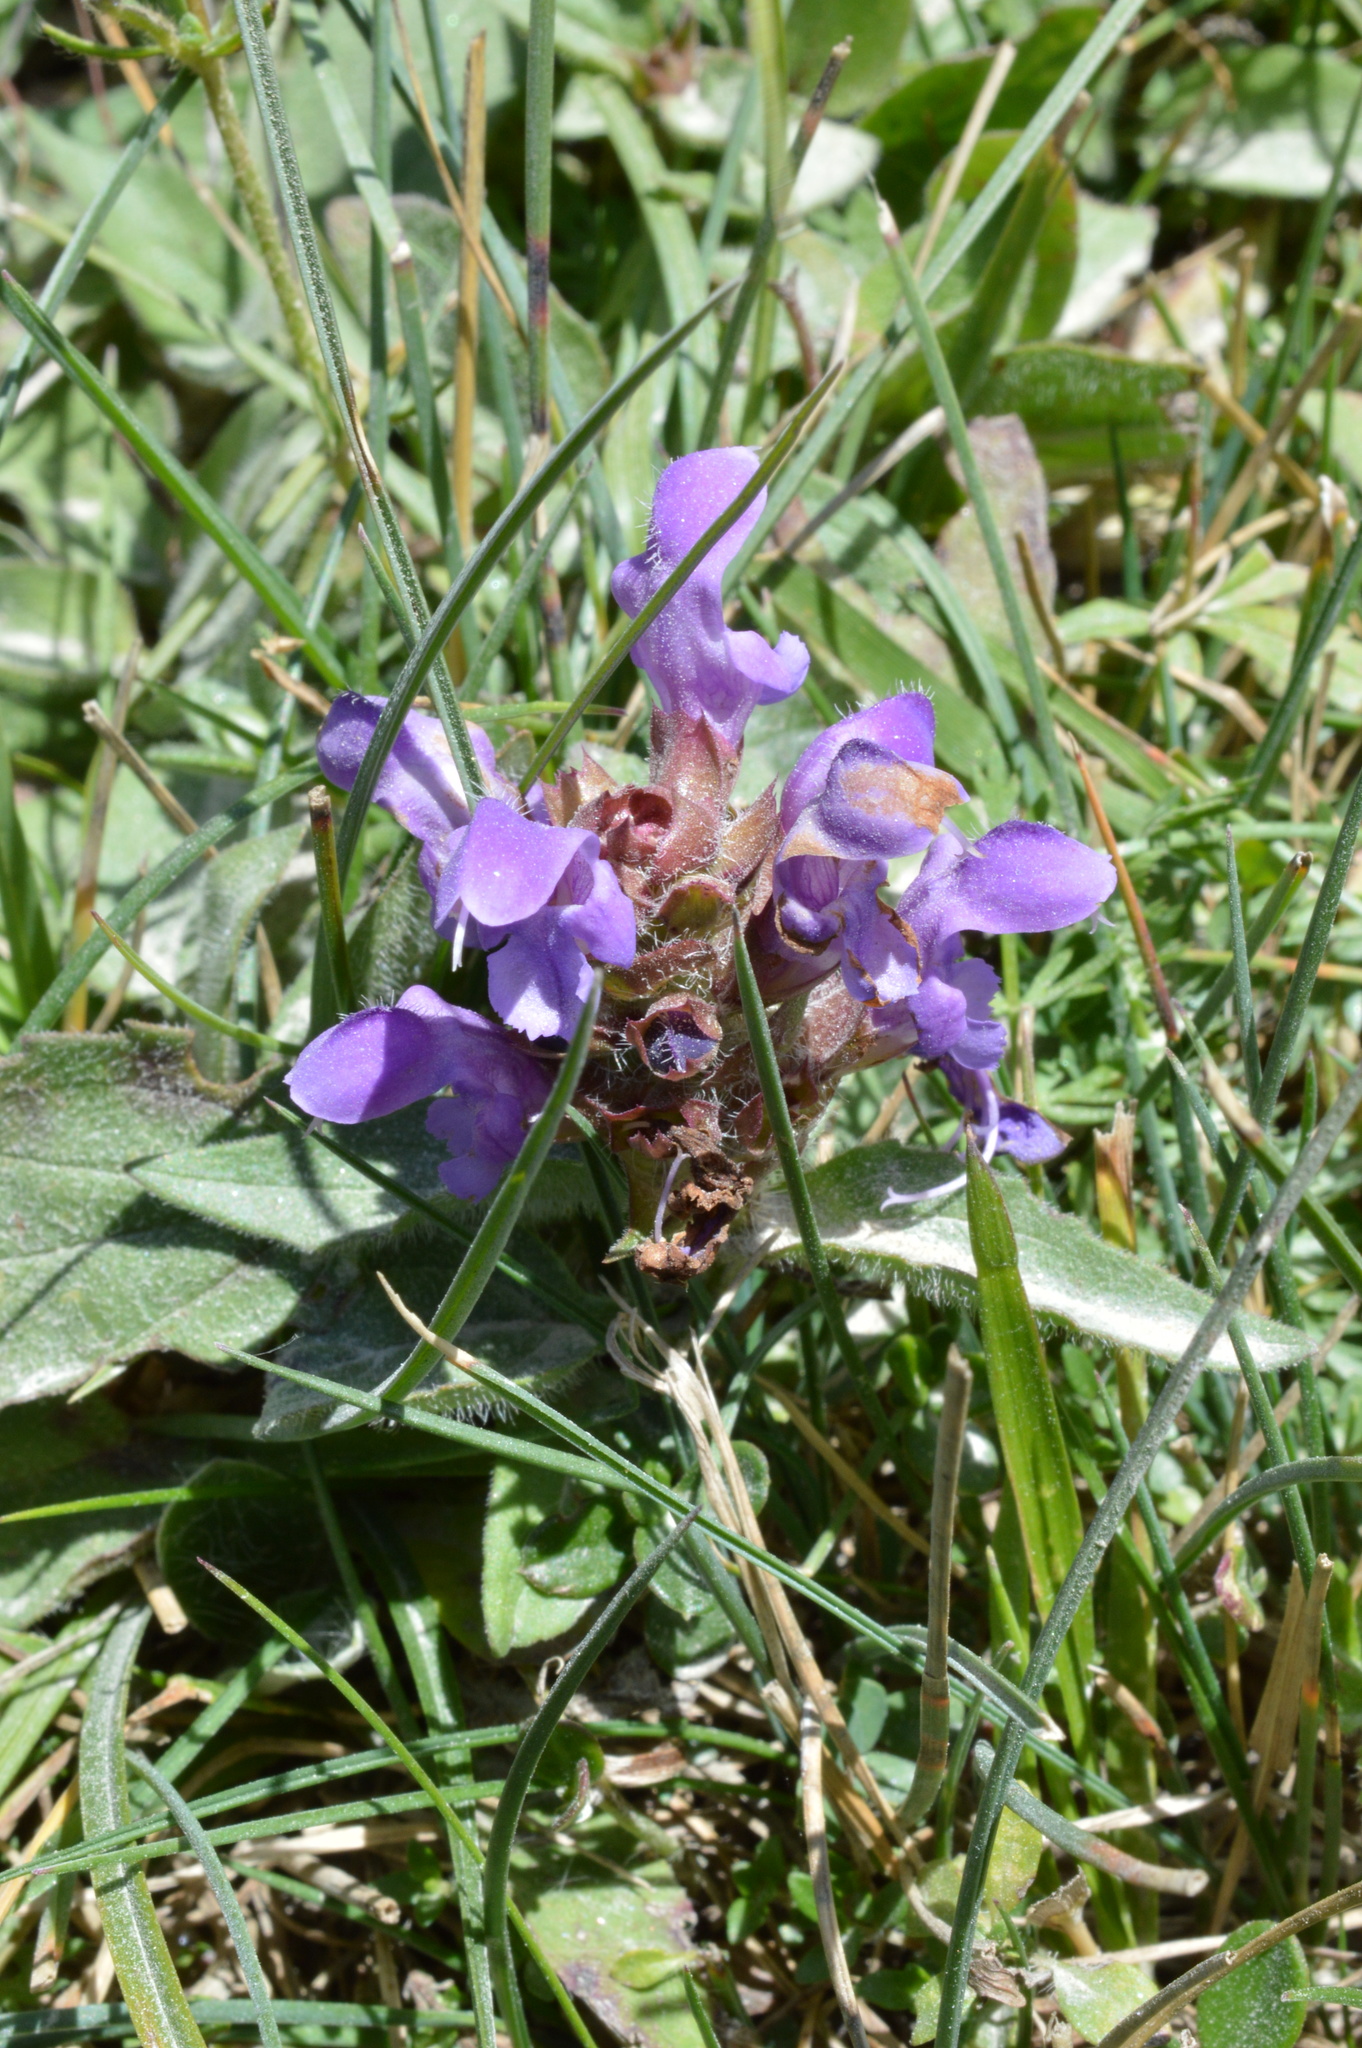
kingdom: Plantae
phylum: Tracheophyta
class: Magnoliopsida
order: Lamiales
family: Lamiaceae
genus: Prunella
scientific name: Prunella grandiflora
